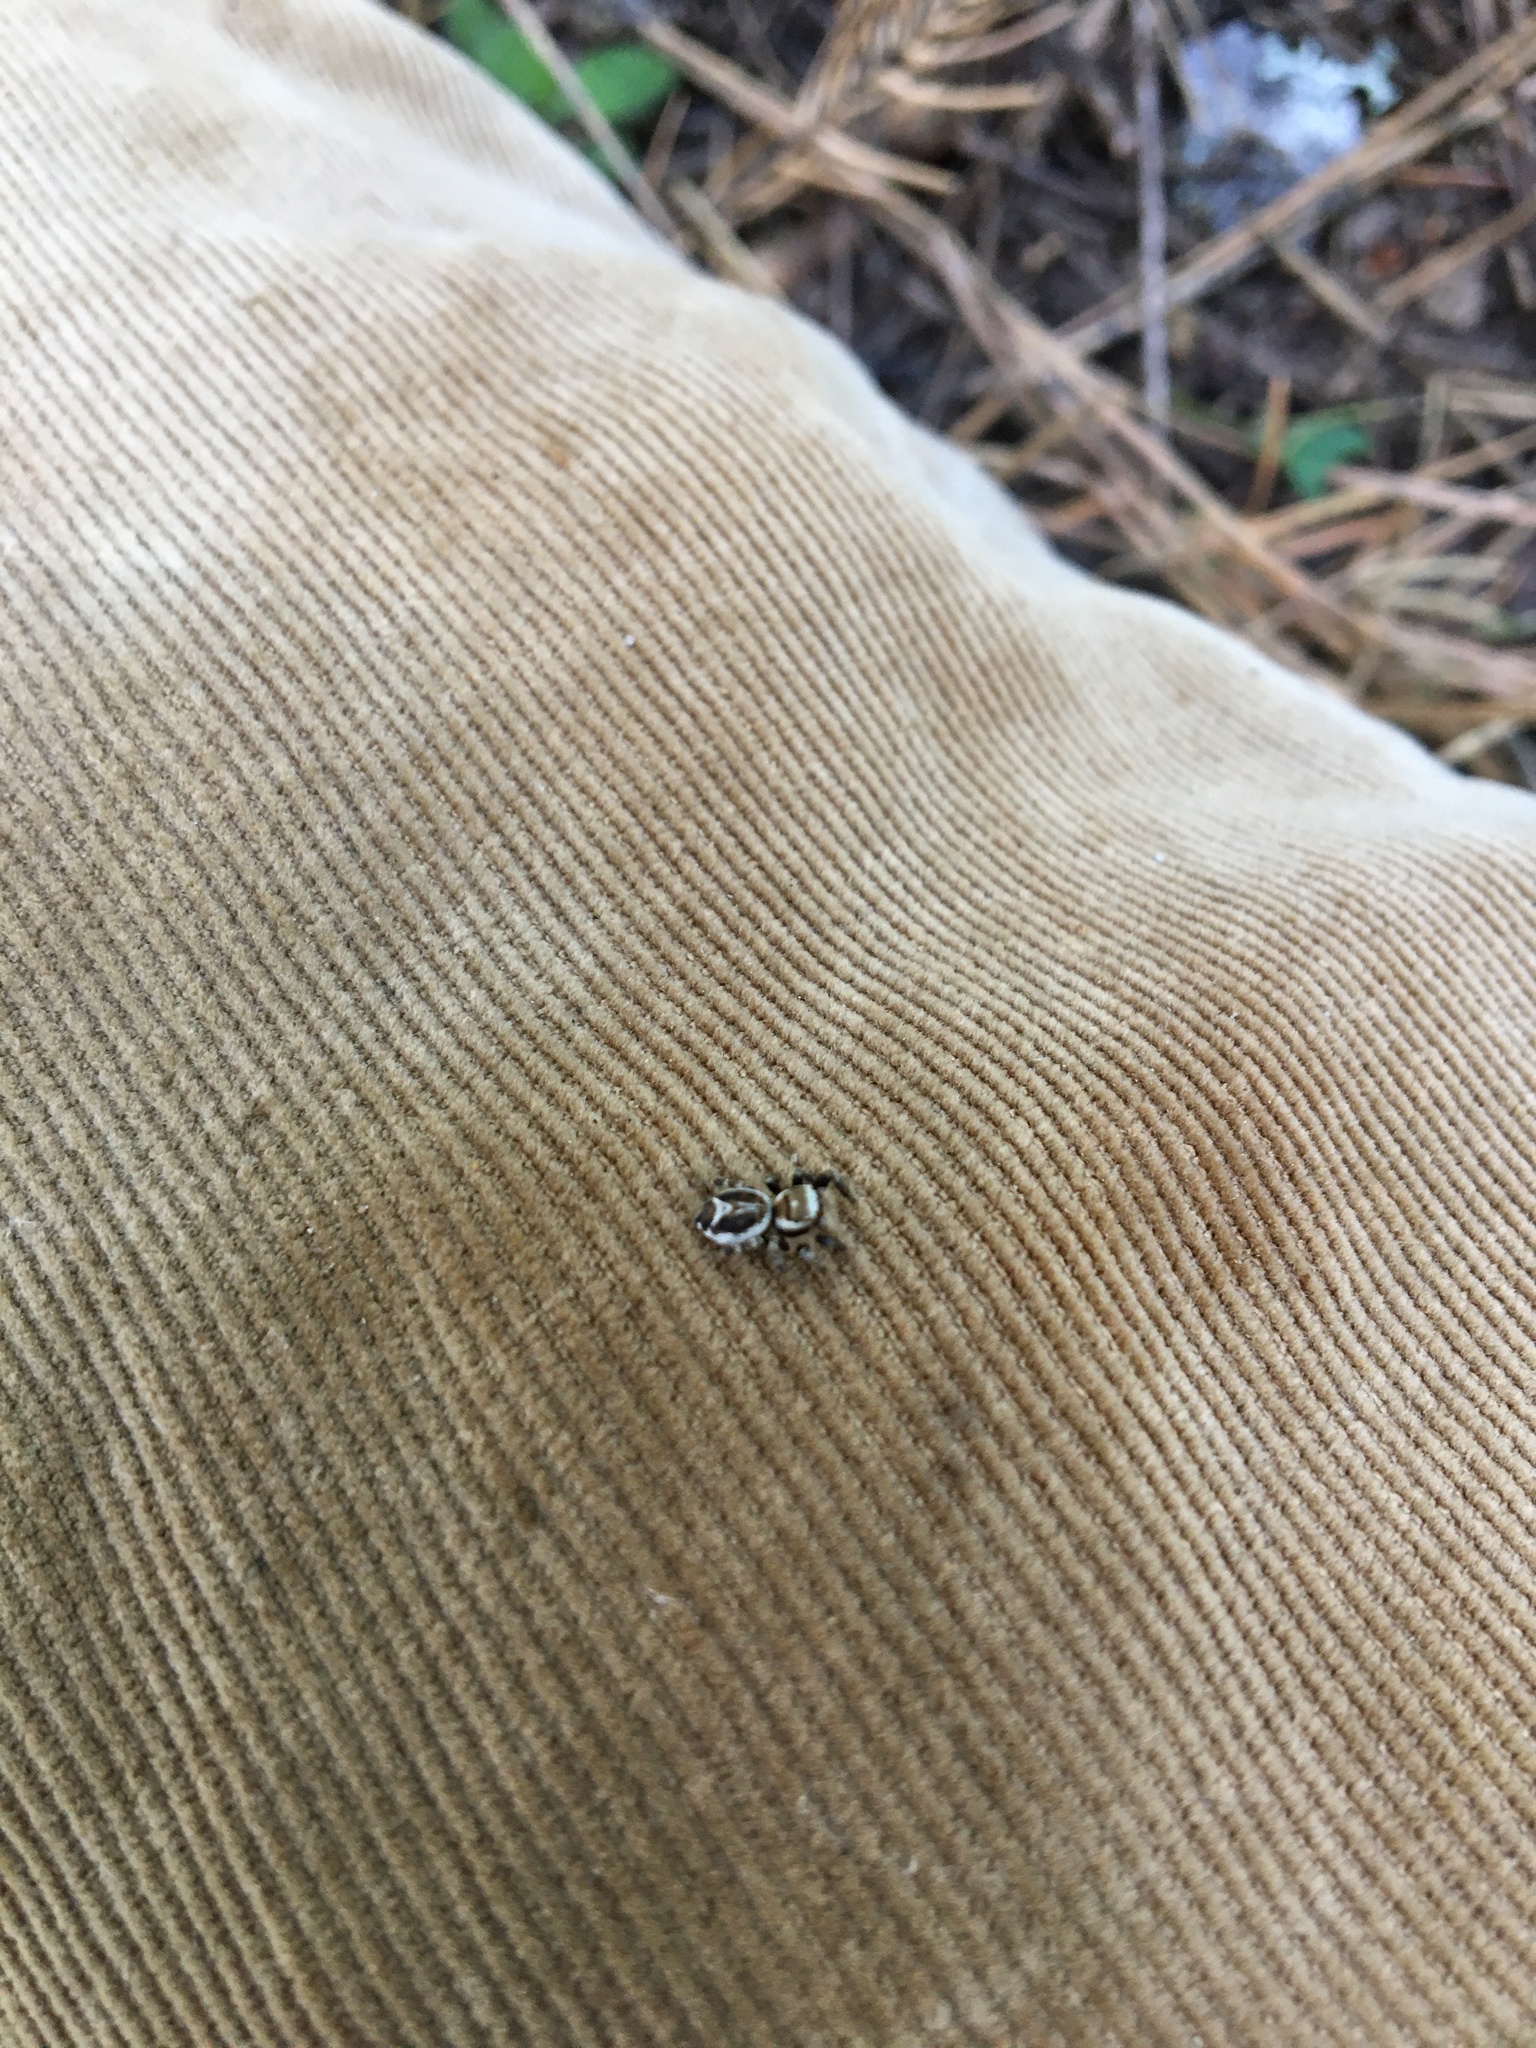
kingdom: Animalia
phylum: Arthropoda
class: Arachnida
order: Araneae
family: Salticidae
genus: Evarcha
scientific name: Evarcha proszynskii
